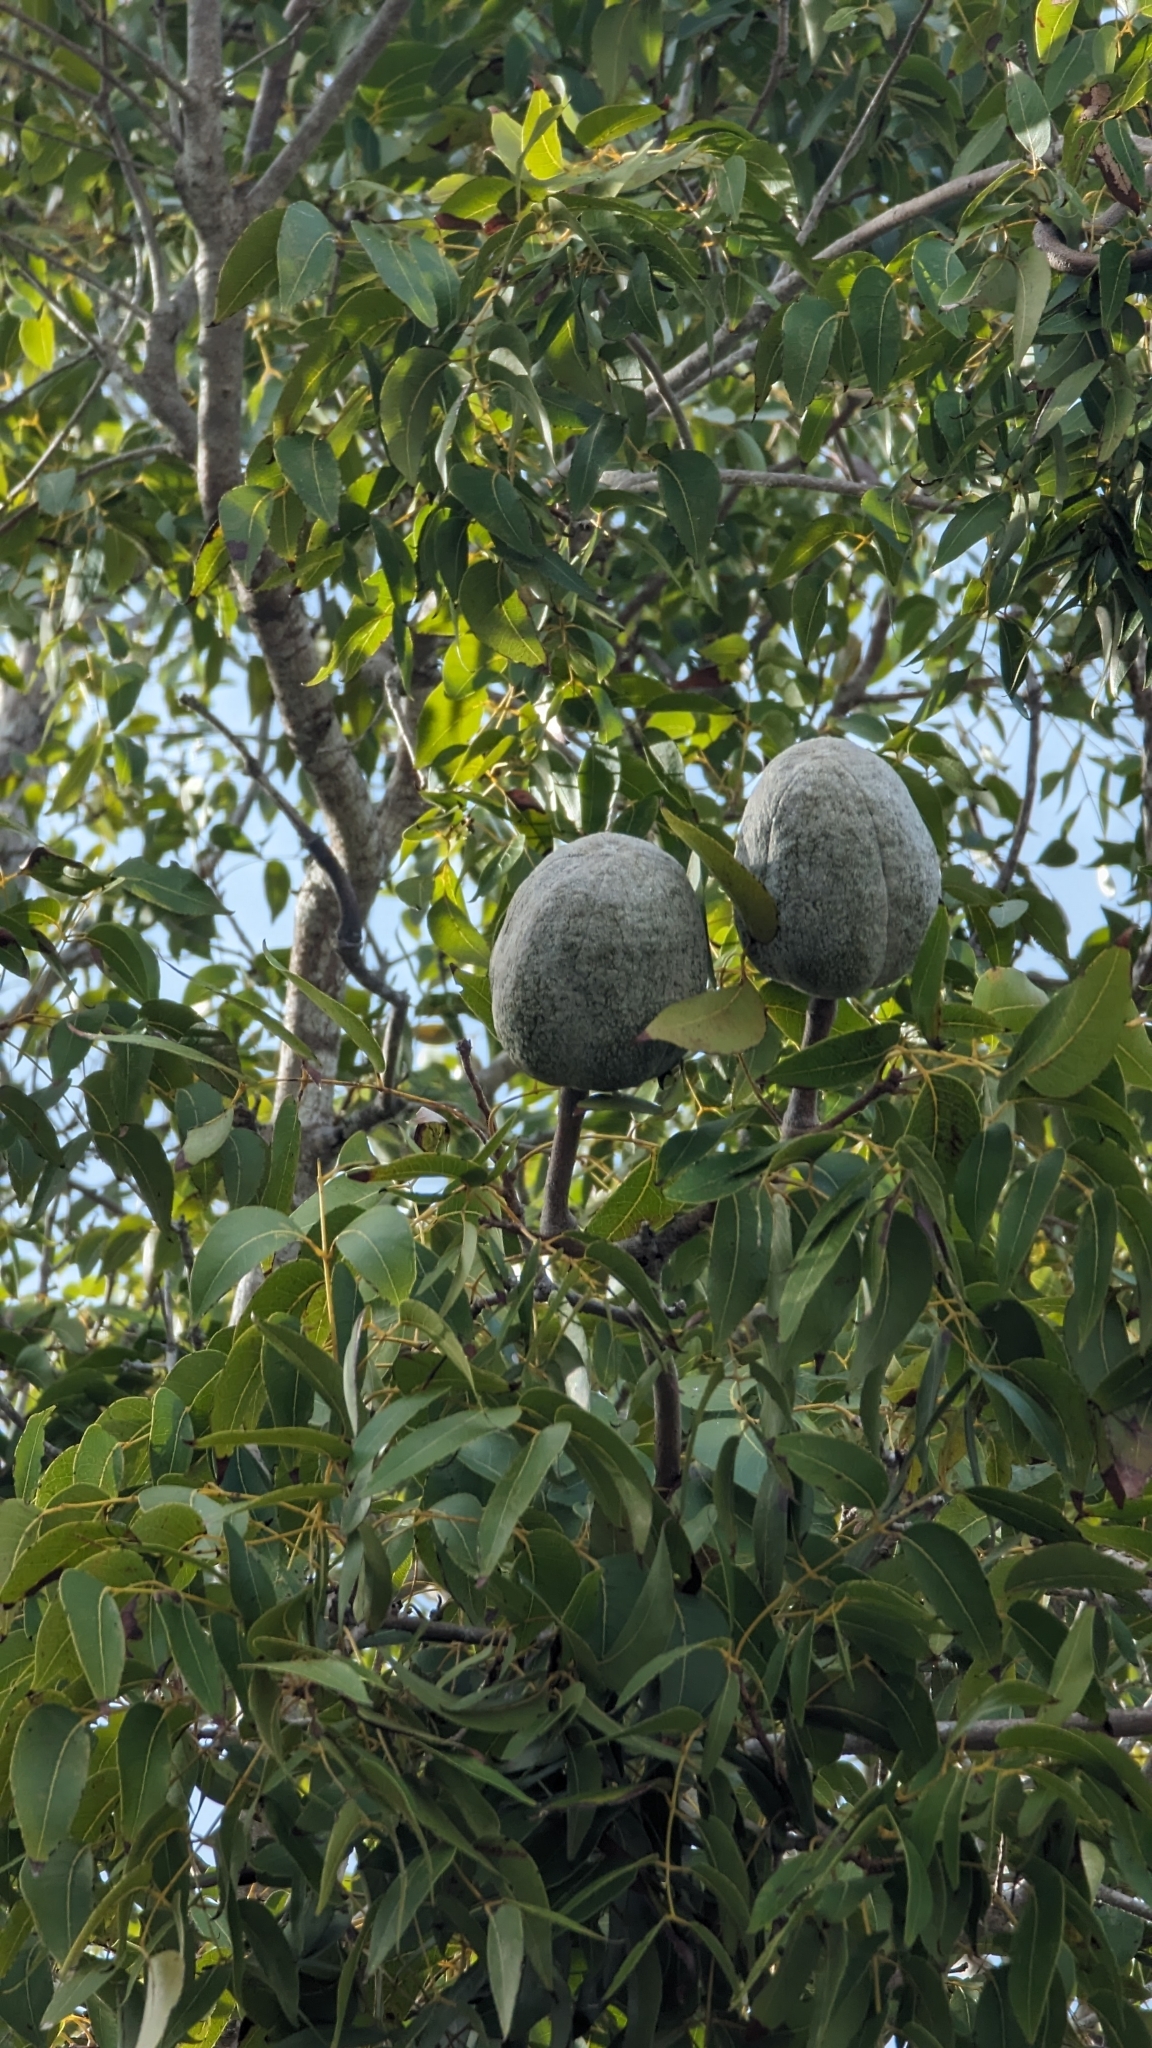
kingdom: Plantae
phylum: Tracheophyta
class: Magnoliopsida
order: Sapindales
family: Meliaceae
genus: Swietenia
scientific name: Swietenia mahagoni
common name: West indian mahogany
